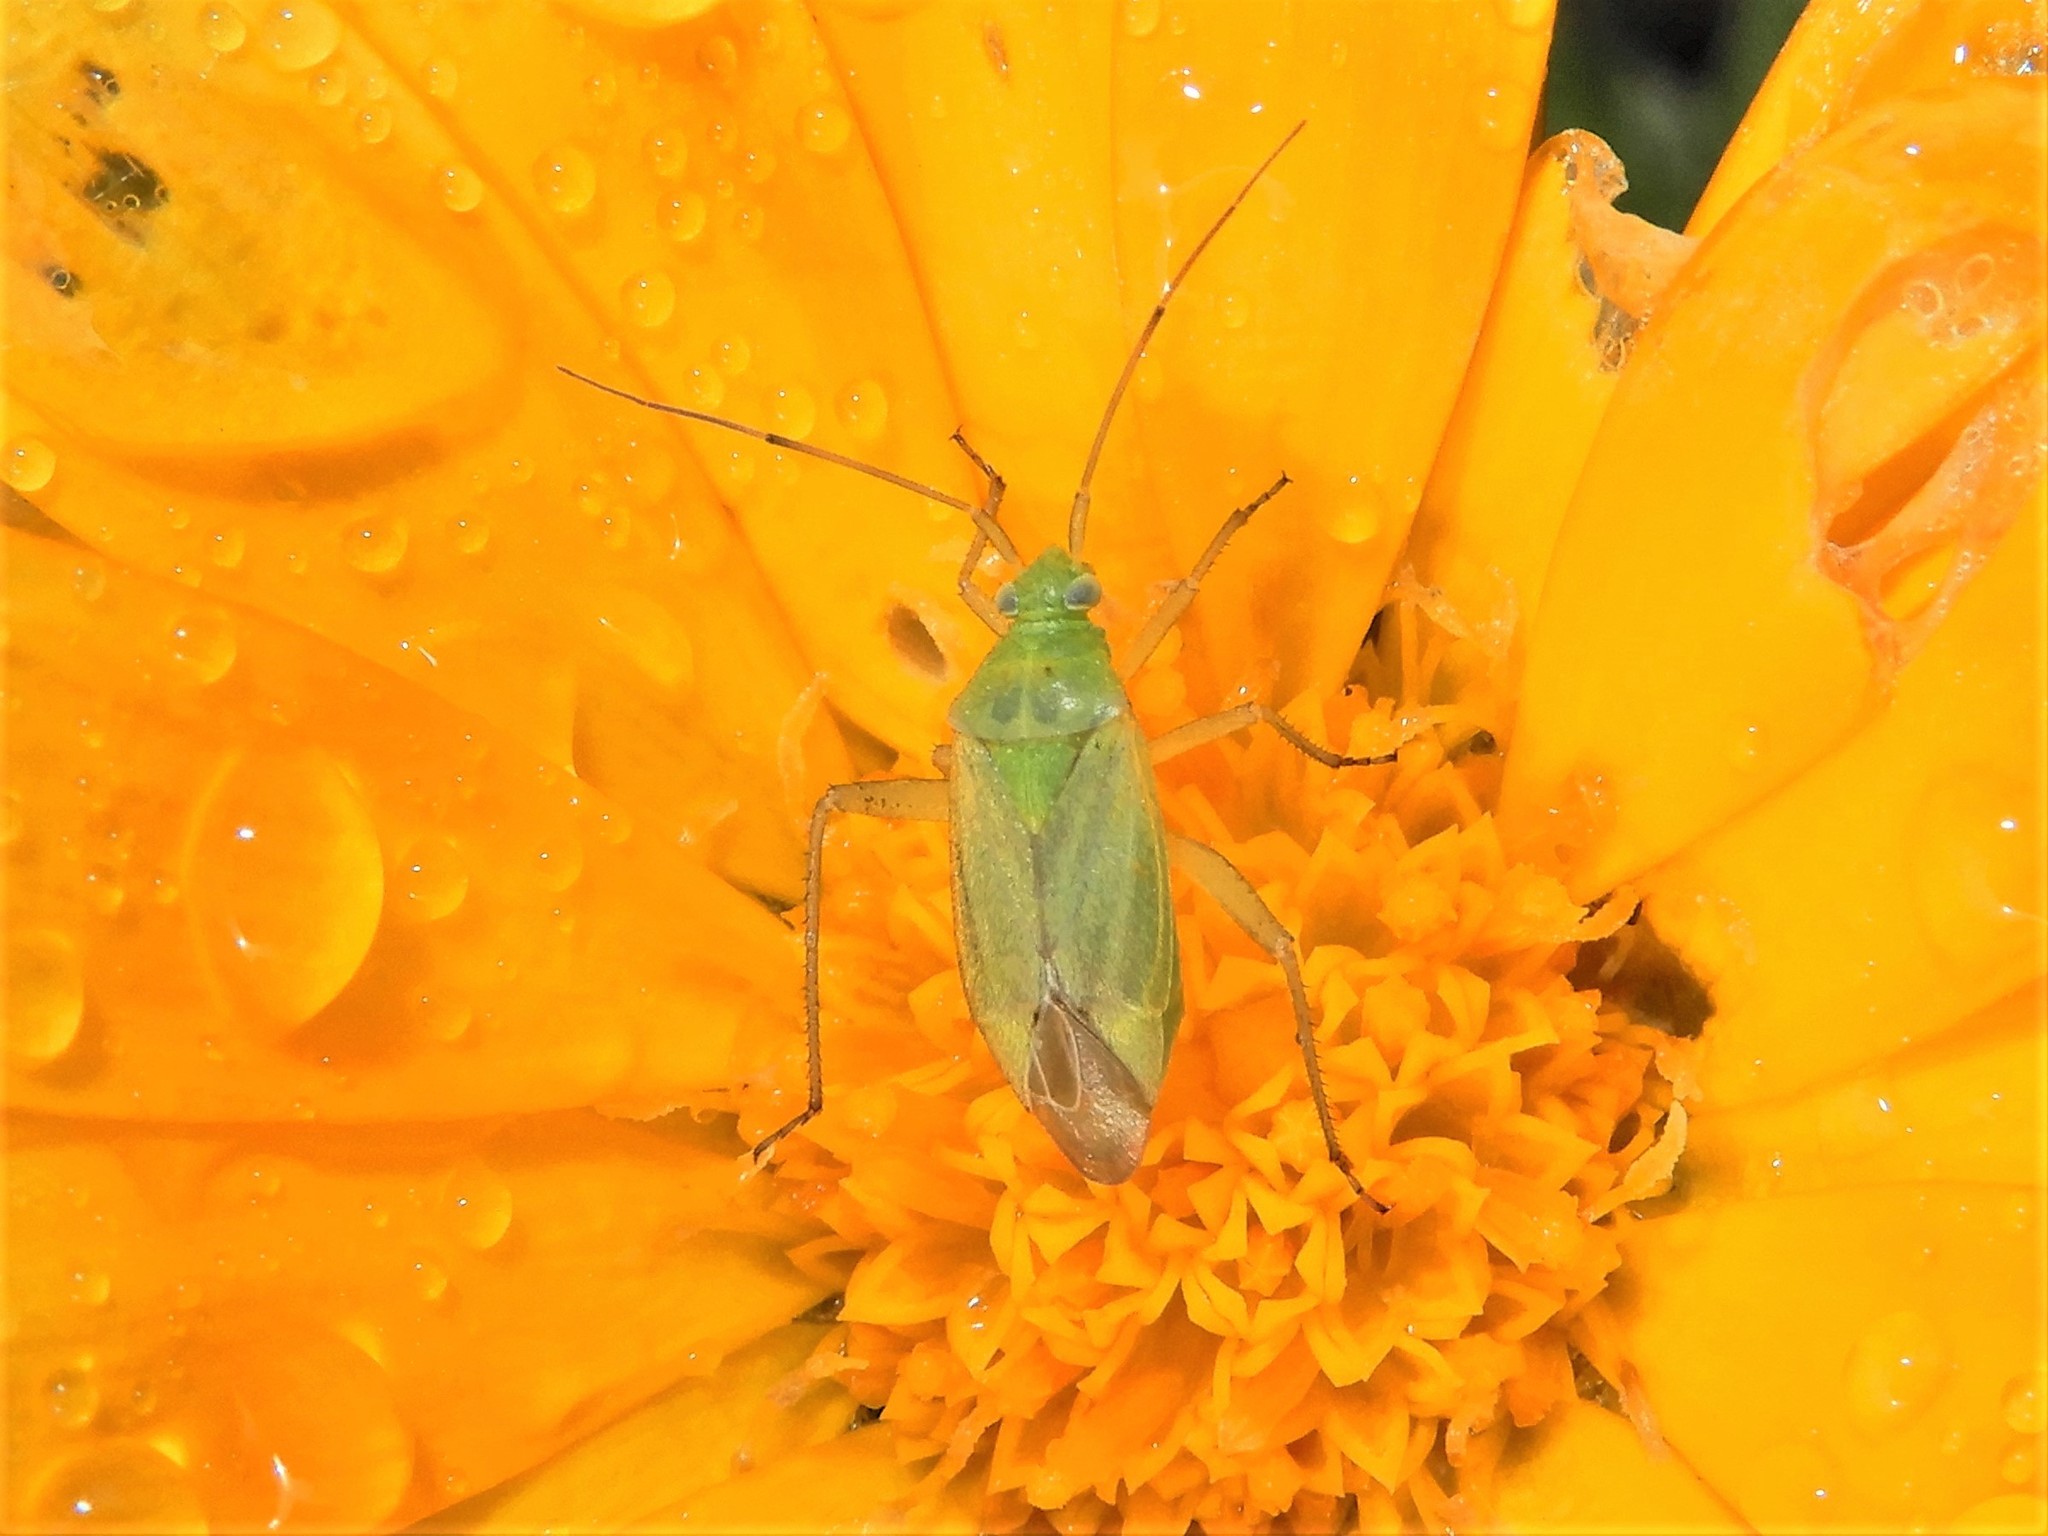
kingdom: Animalia
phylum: Arthropoda
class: Insecta
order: Hemiptera
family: Miridae
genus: Closterotomus
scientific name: Closterotomus norvegicus
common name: Plant bug
